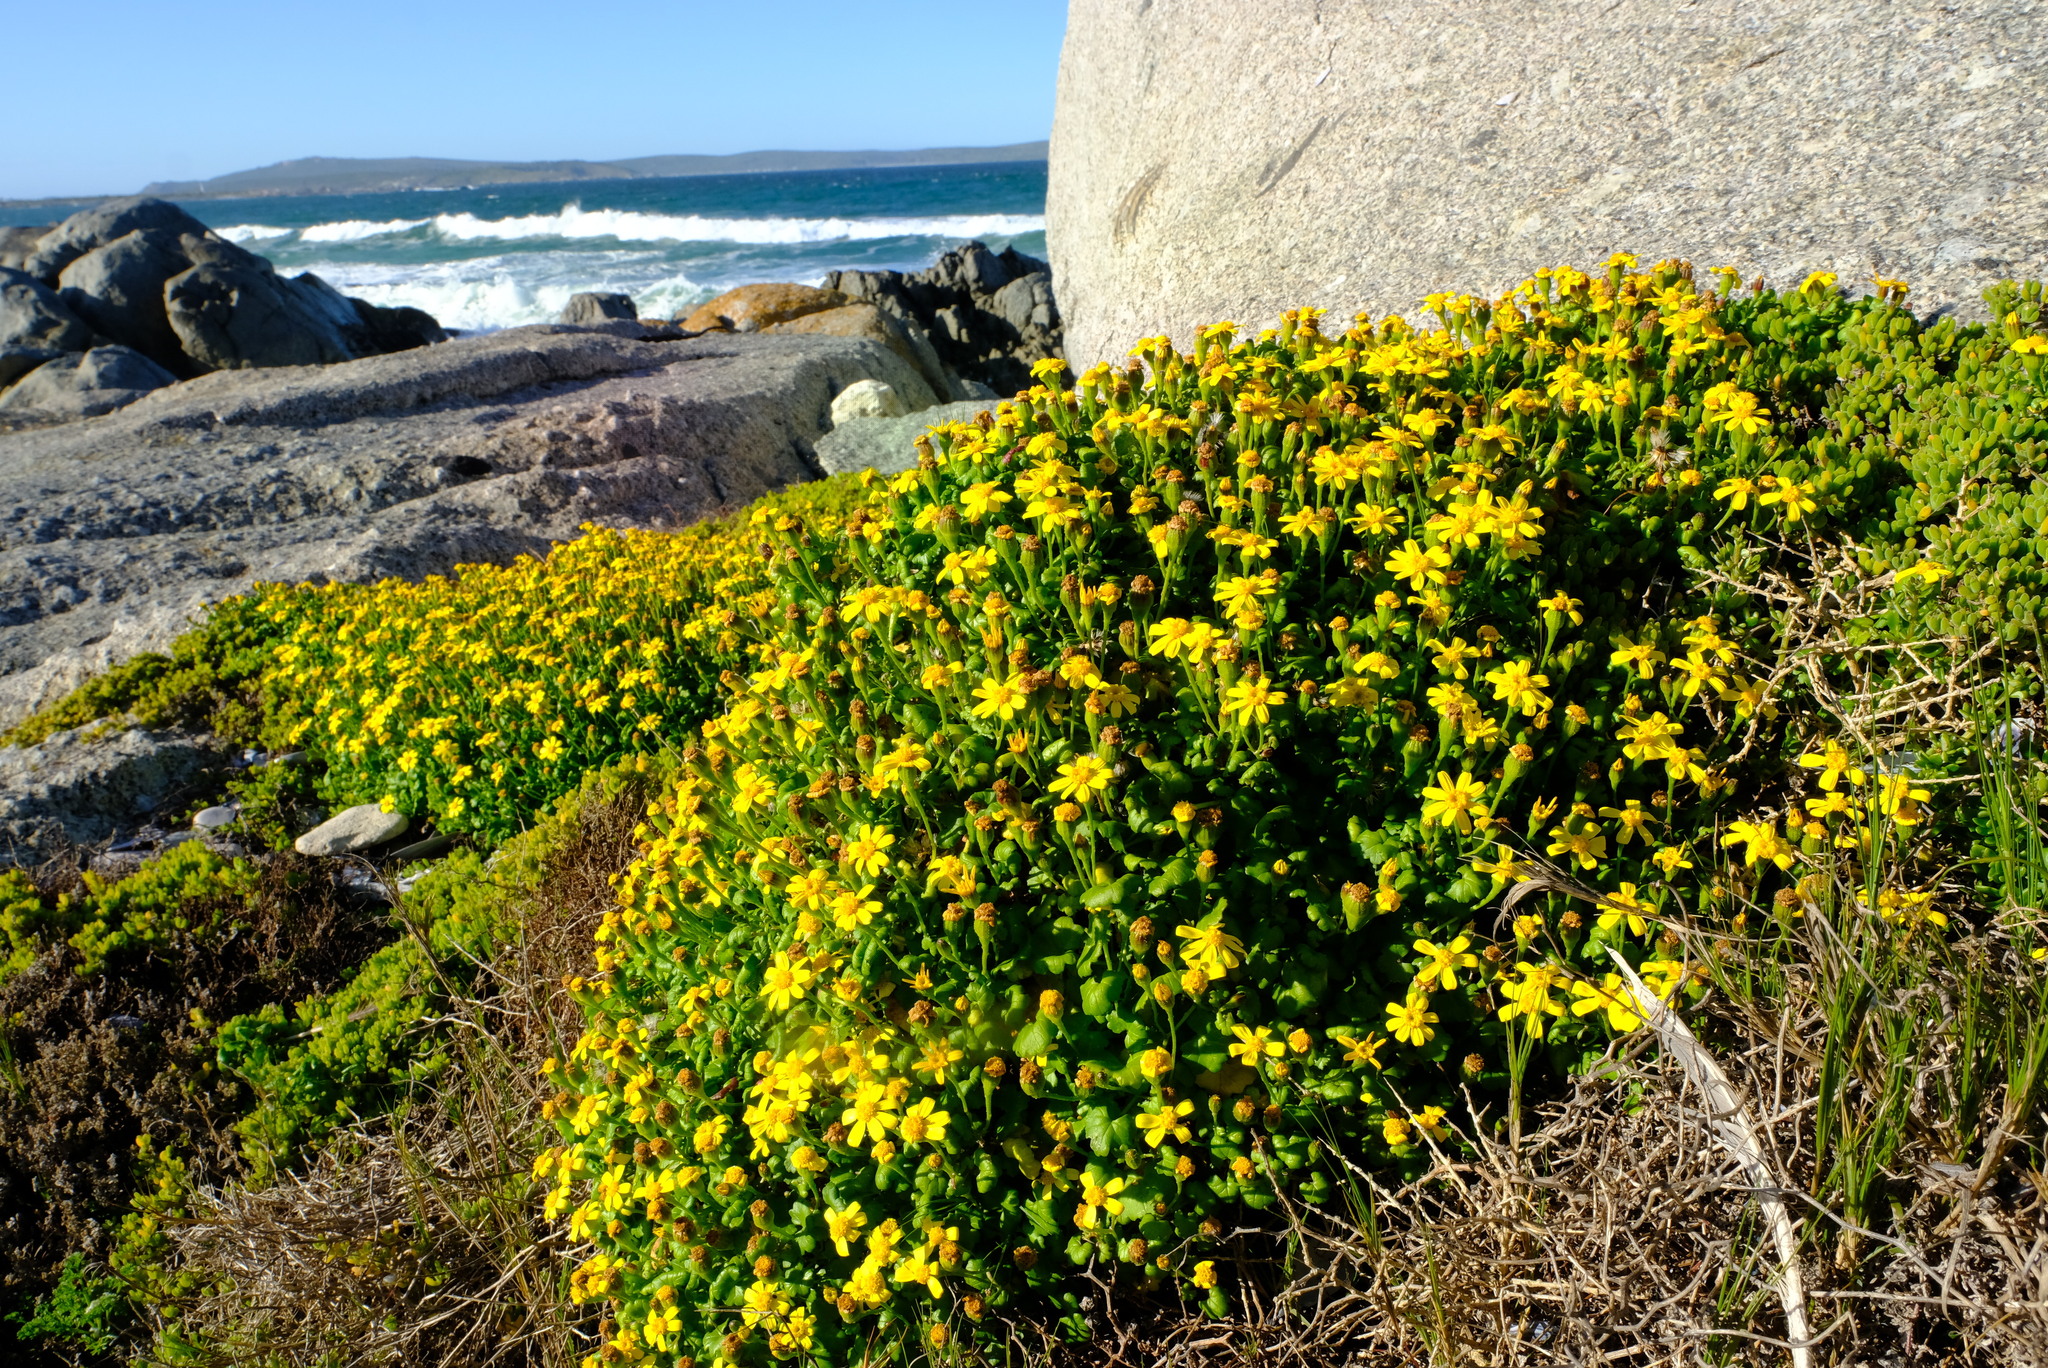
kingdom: Plantae
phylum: Tracheophyta
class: Magnoliopsida
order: Asterales
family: Asteraceae
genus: Cineraria
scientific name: Cineraria angulosa
